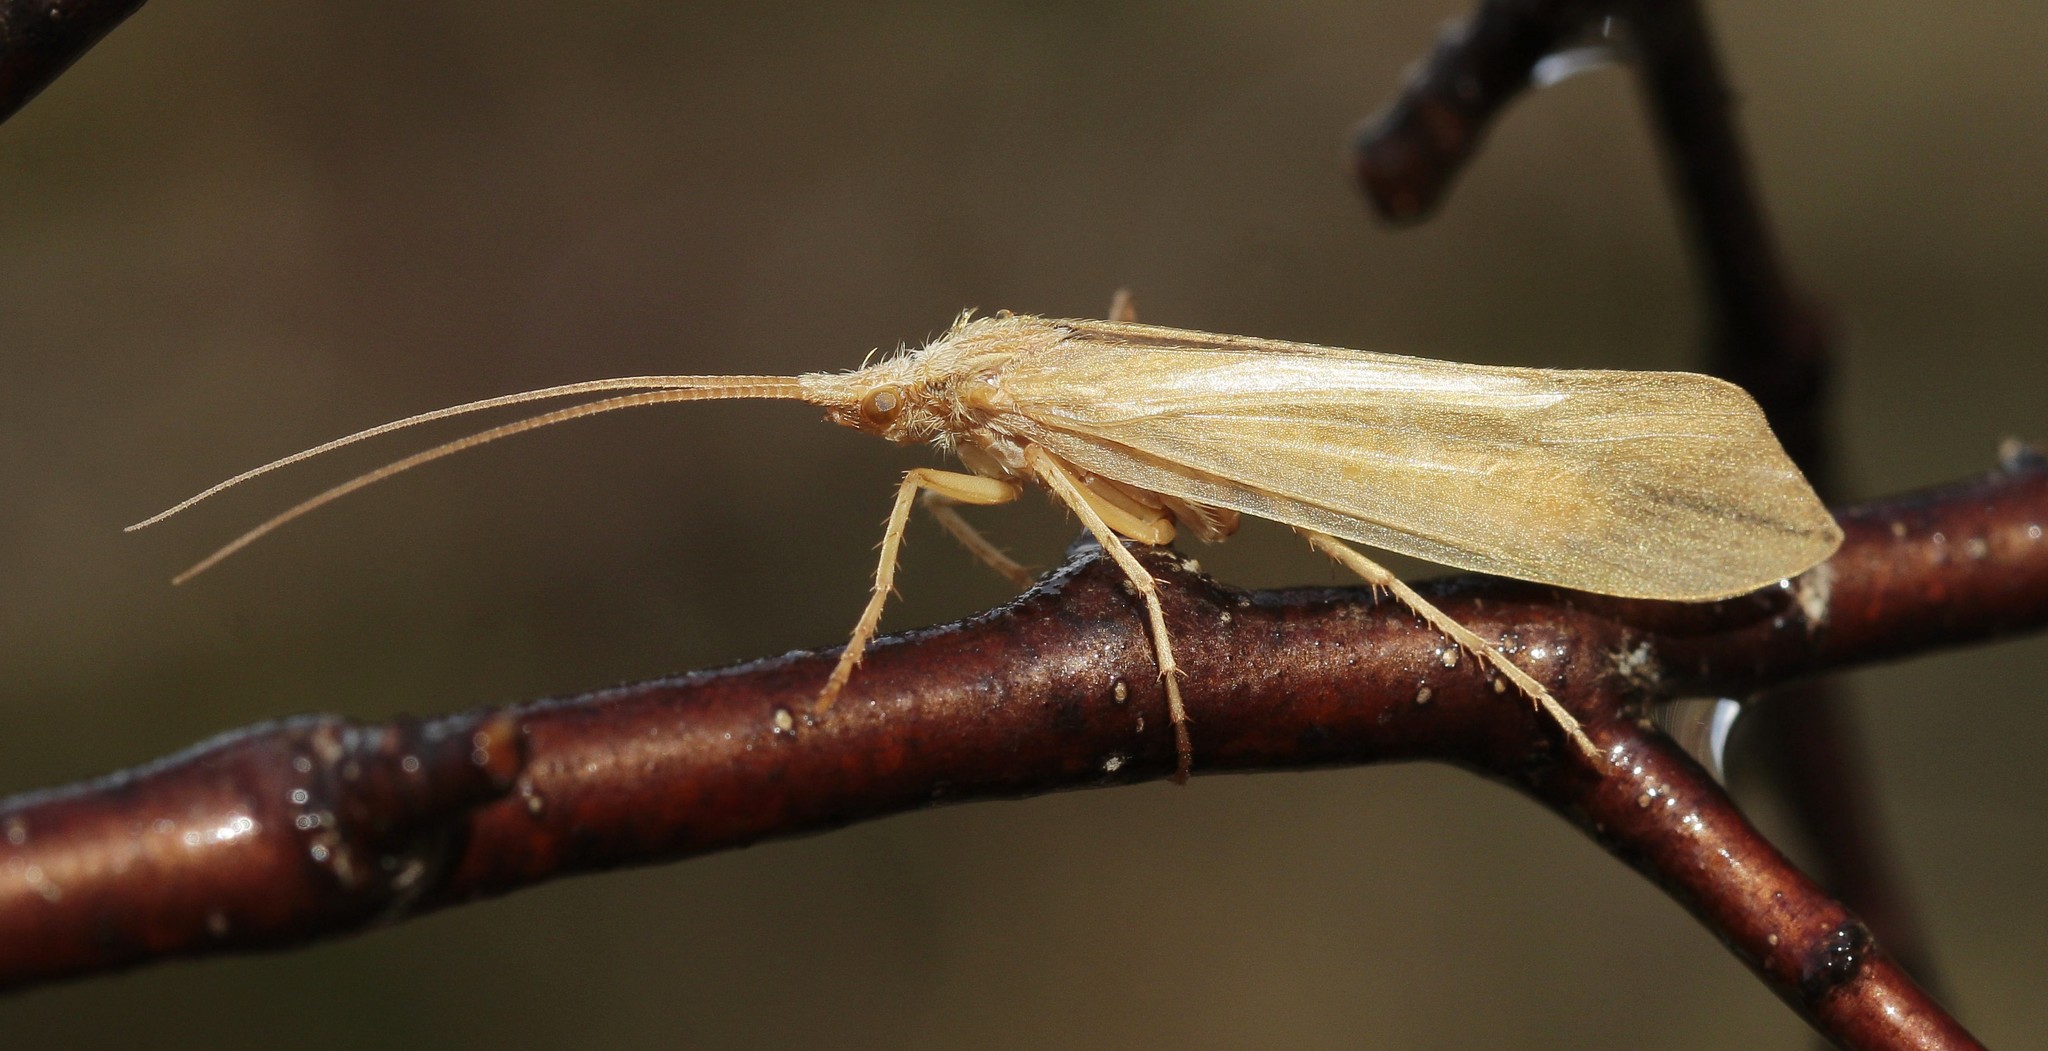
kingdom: Animalia
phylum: Arthropoda
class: Insecta
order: Trichoptera
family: Limnephilidae
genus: Grammotaulius
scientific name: Grammotaulius nitidus
